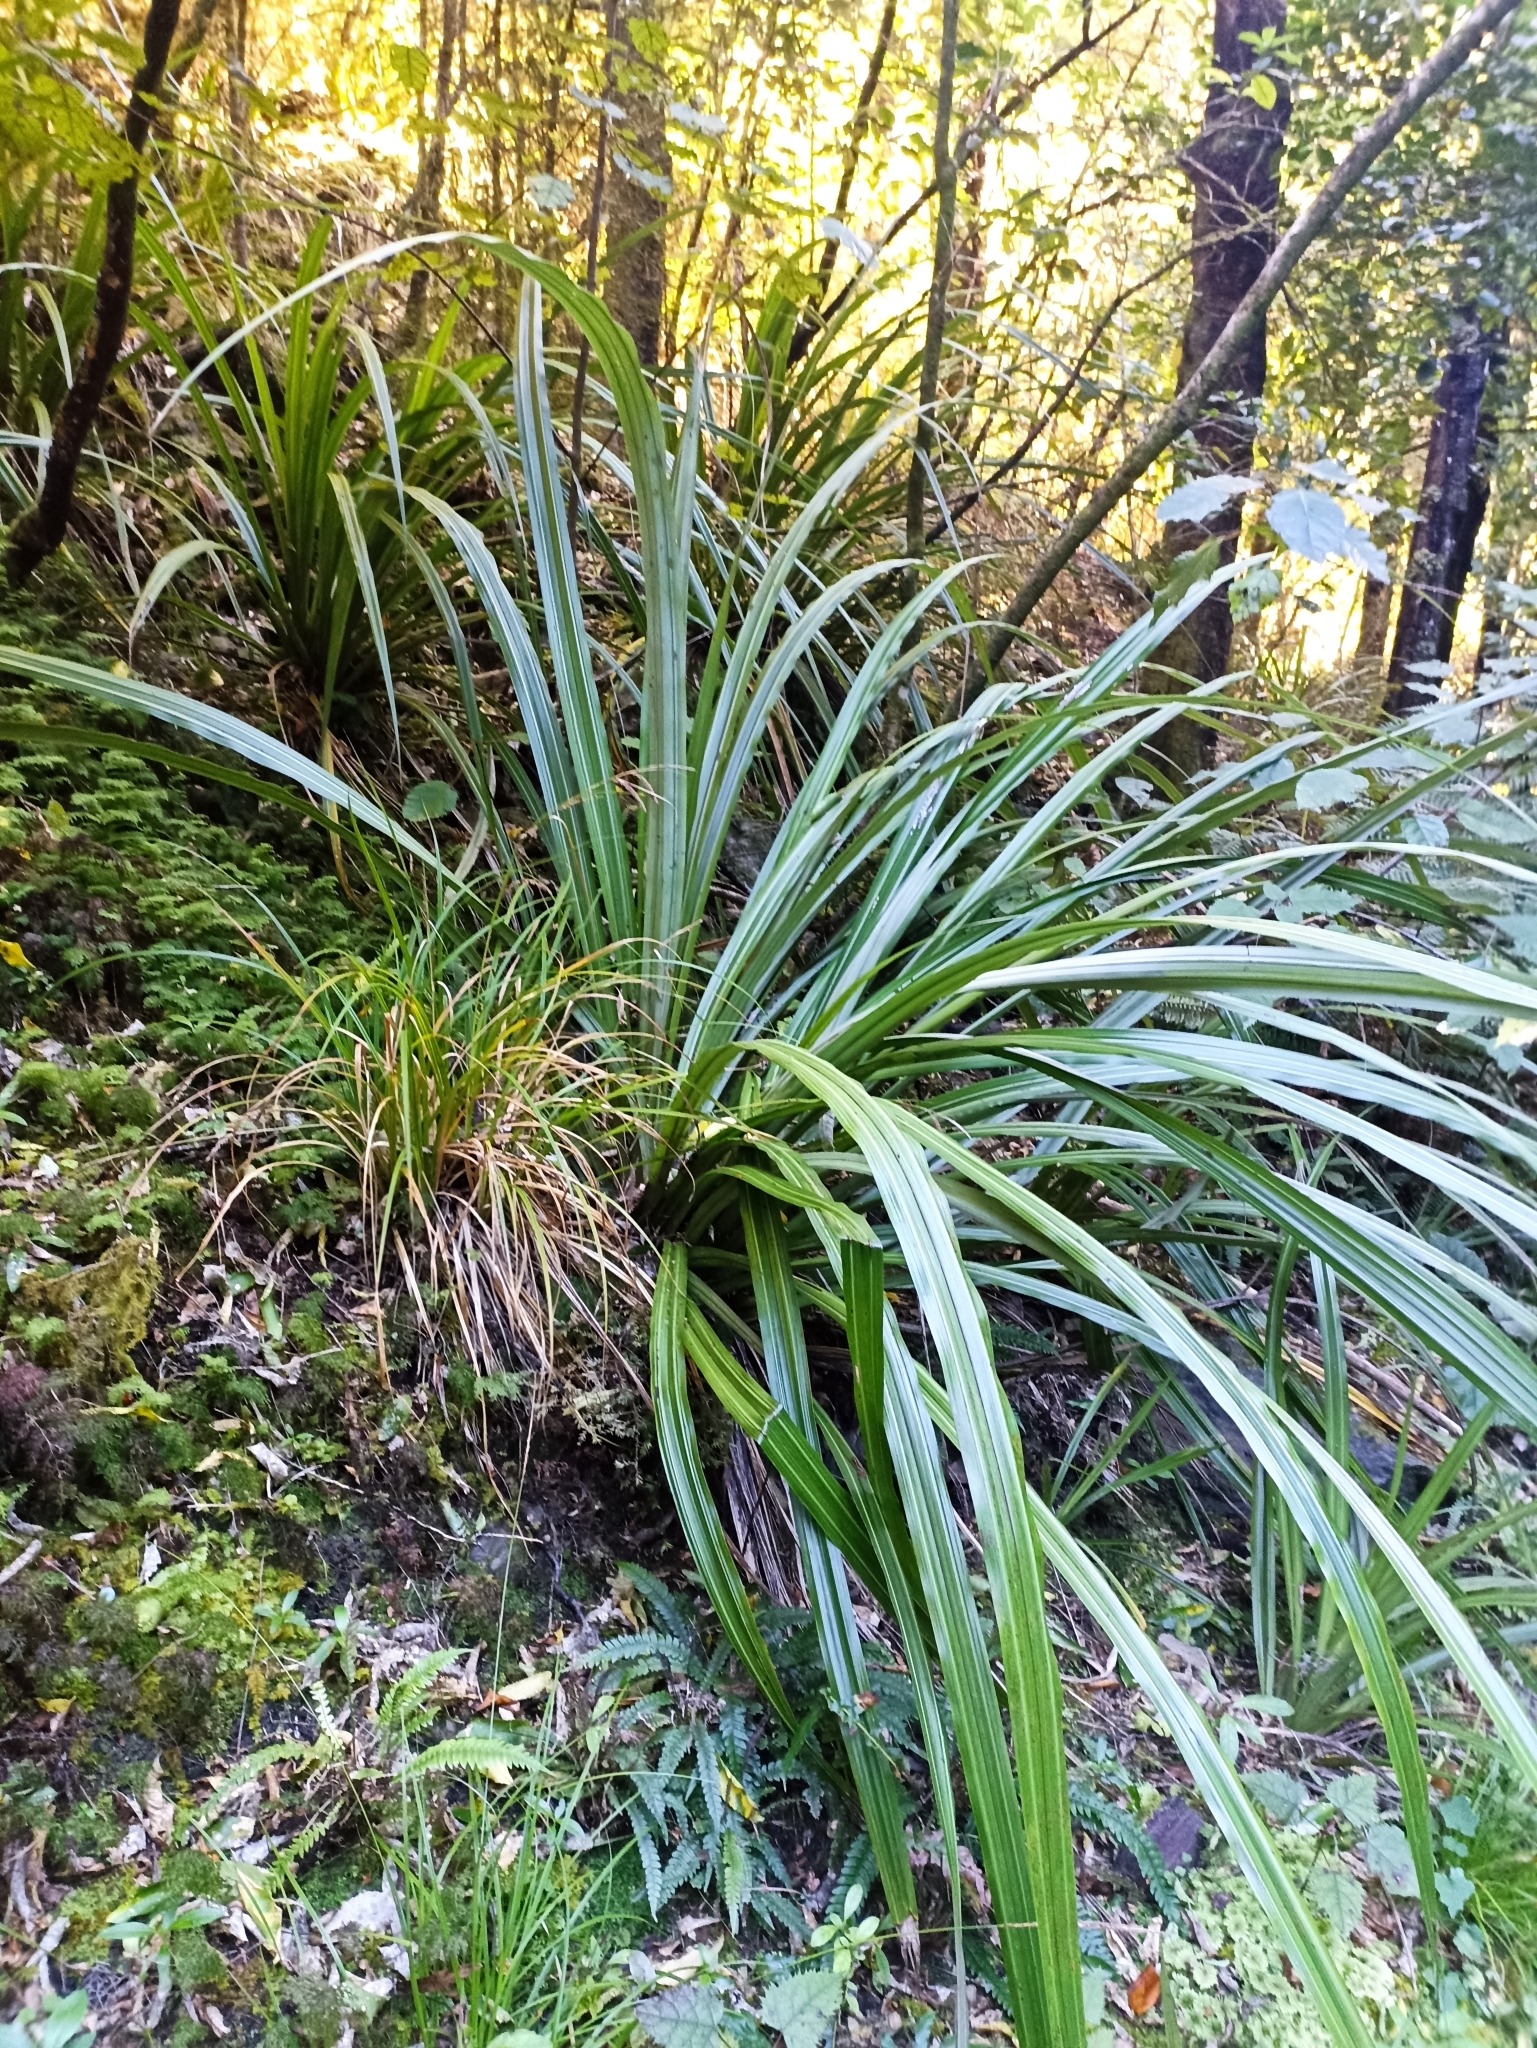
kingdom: Plantae
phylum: Tracheophyta
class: Liliopsida
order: Asparagales
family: Asteliaceae
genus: Astelia
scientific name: Astelia fragrans
